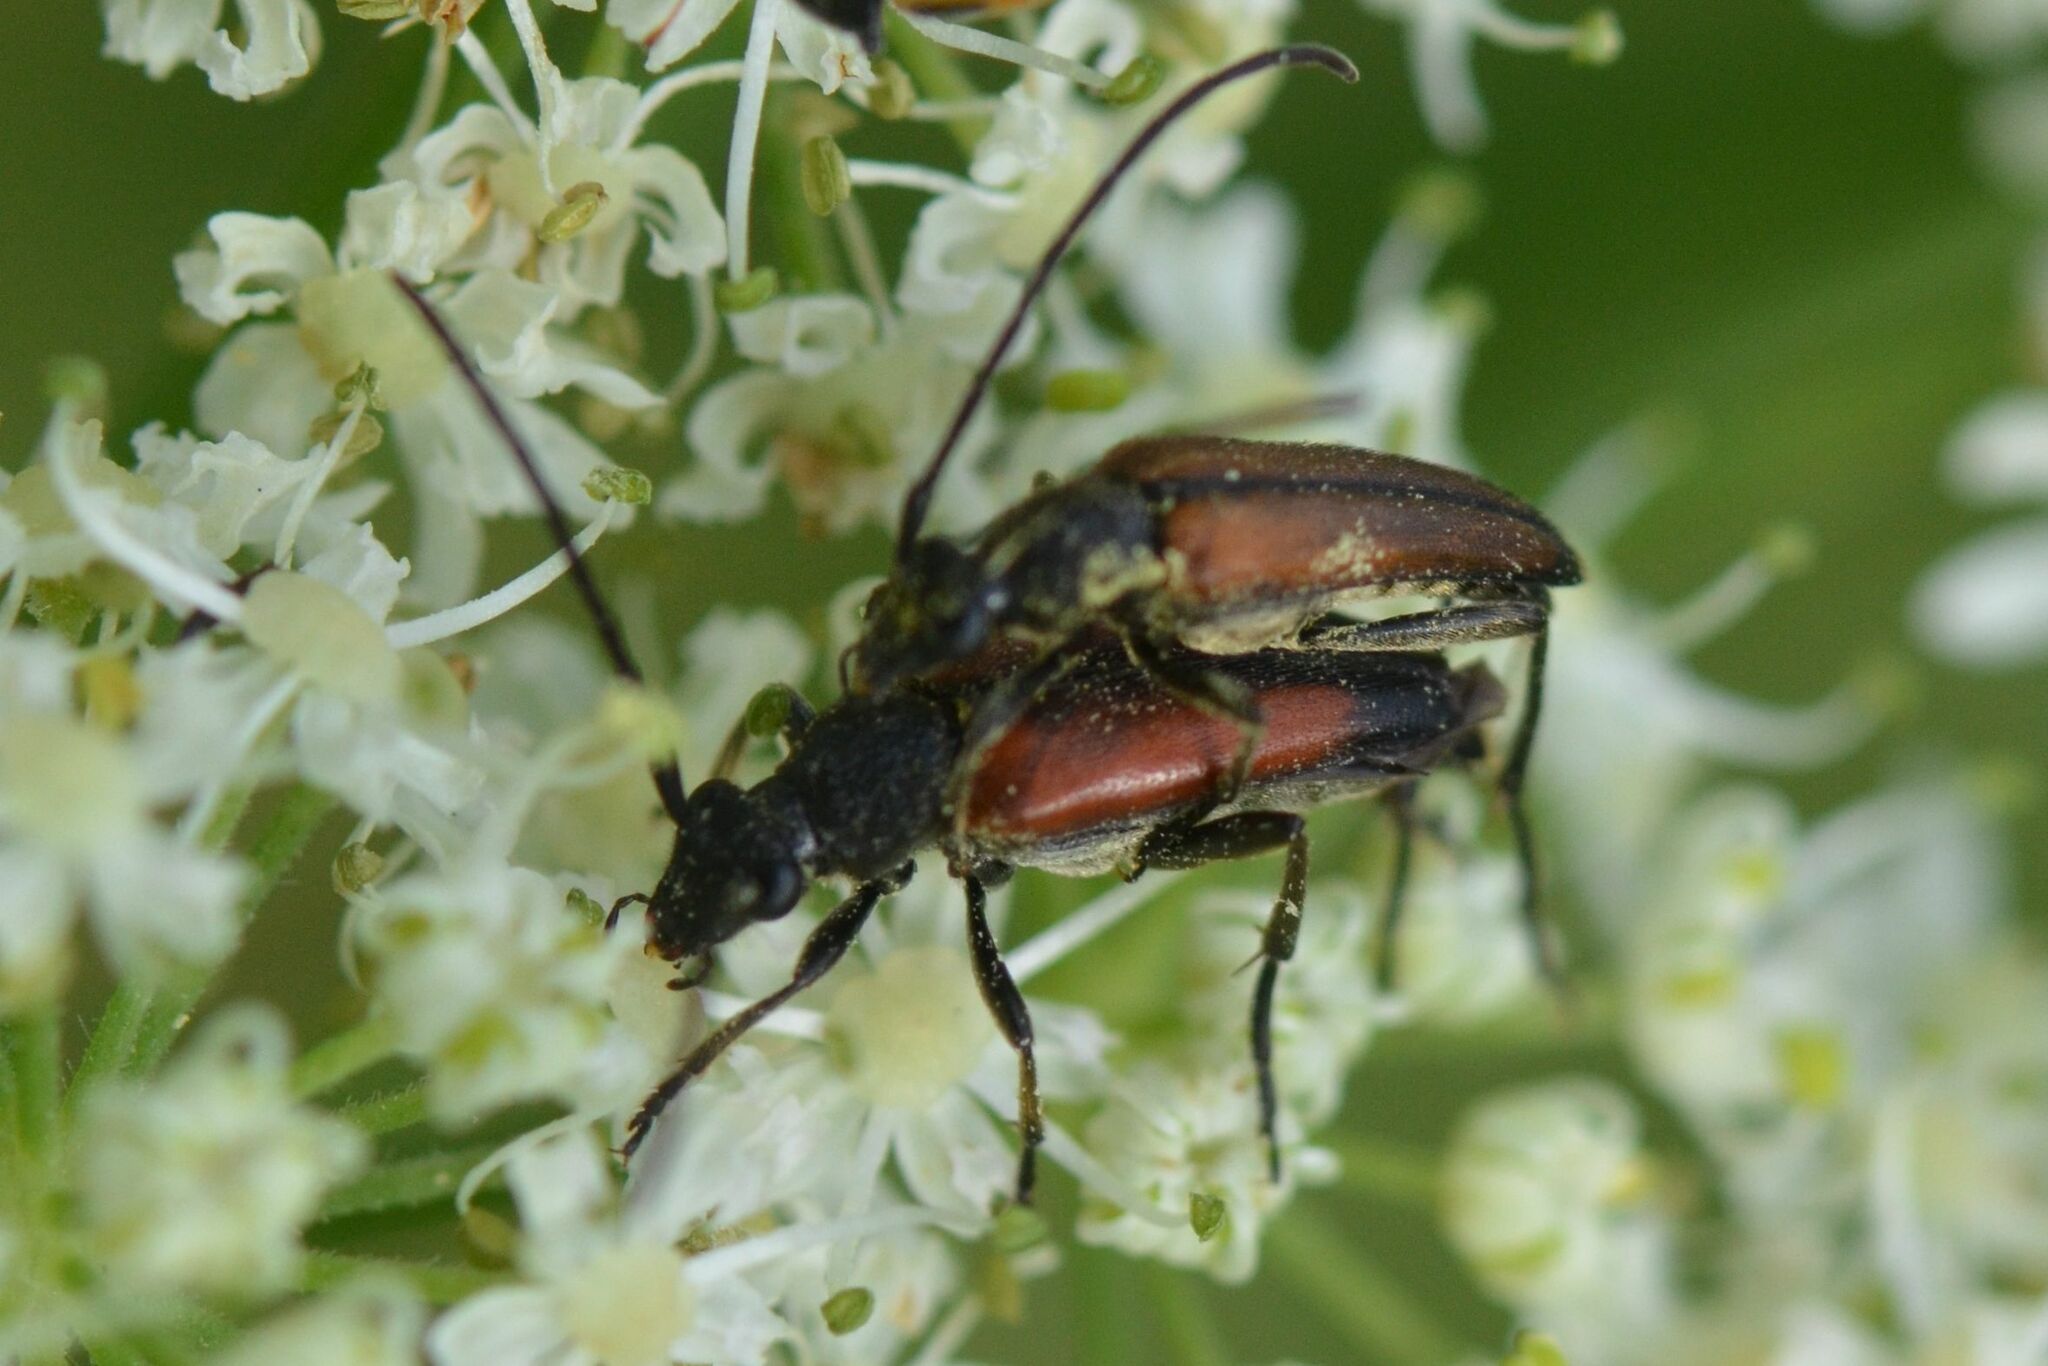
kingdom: Animalia
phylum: Arthropoda
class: Insecta
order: Coleoptera
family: Cerambycidae
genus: Stenurella
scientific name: Stenurella melanura
